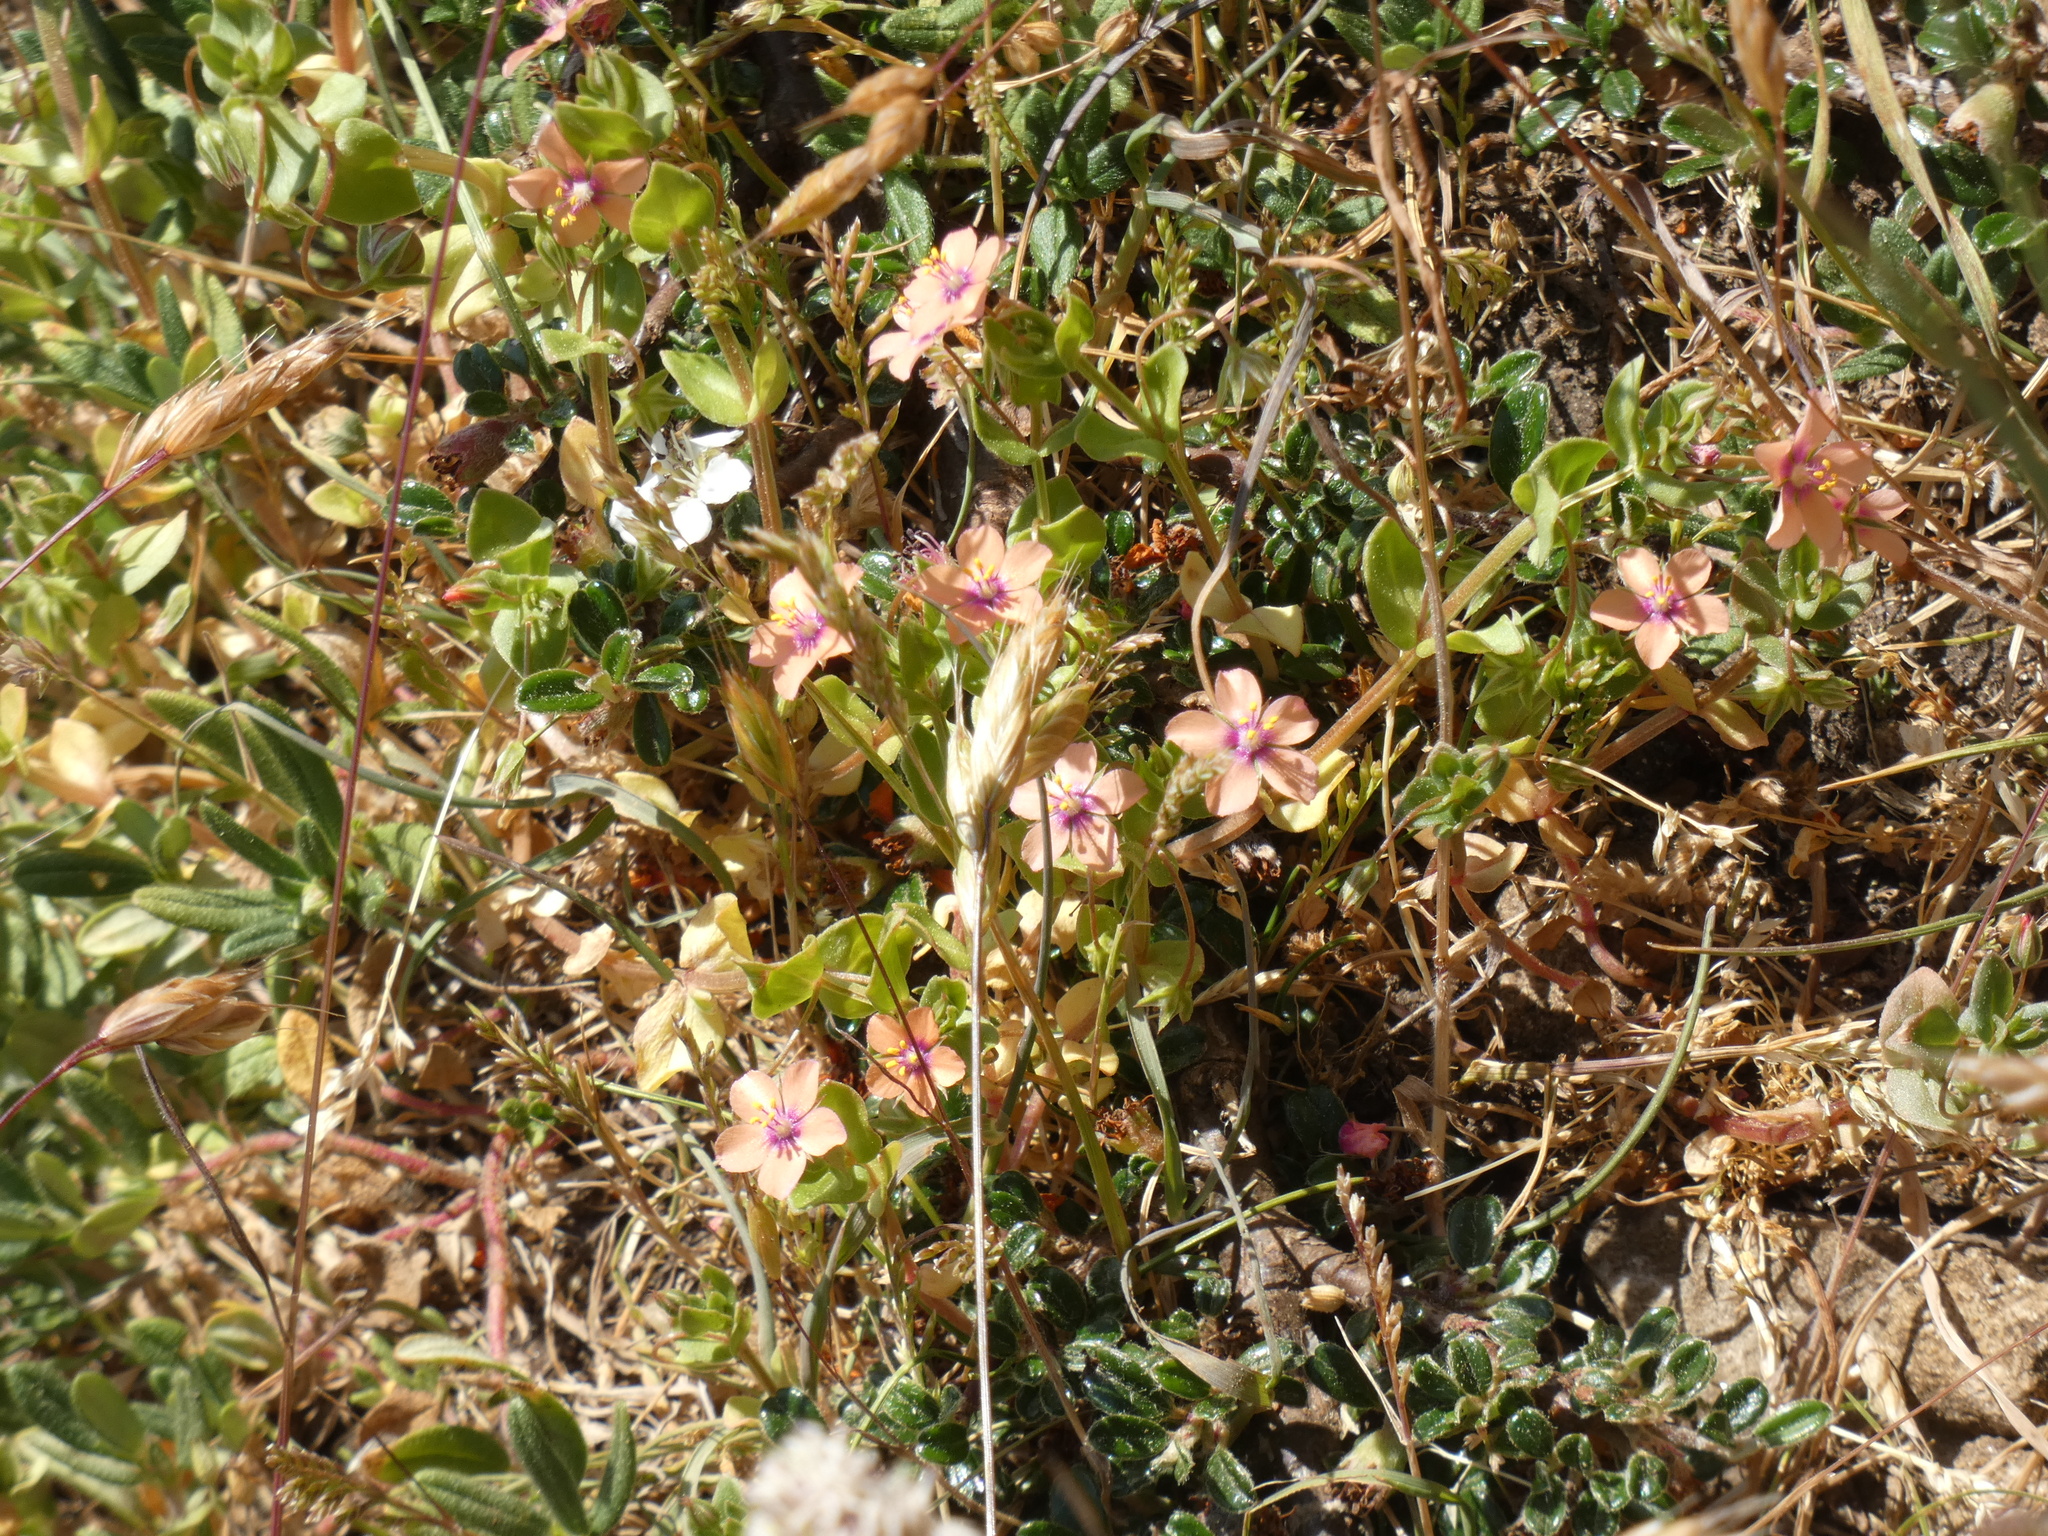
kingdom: Plantae
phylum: Tracheophyta
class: Magnoliopsida
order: Ericales
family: Primulaceae
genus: Lysimachia
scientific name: Lysimachia arvensis
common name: Scarlet pimpernel
